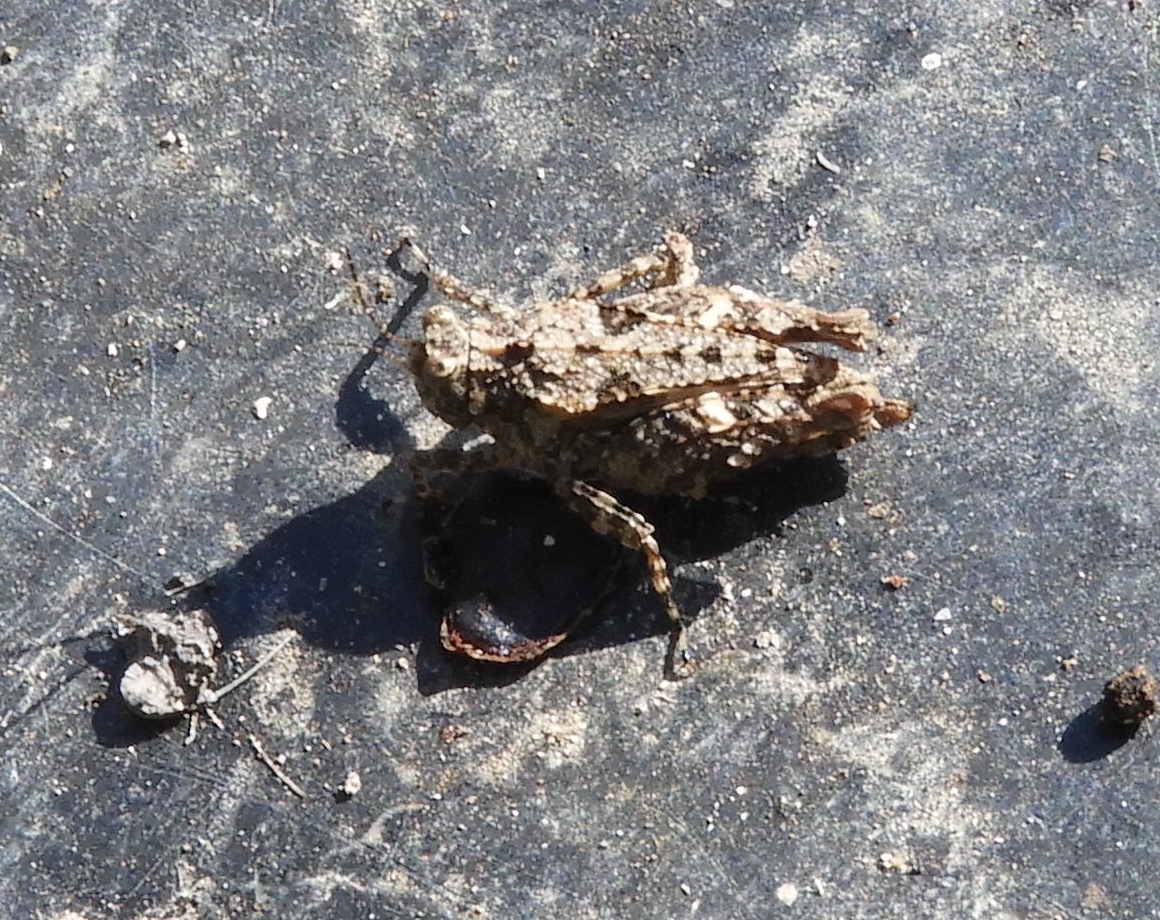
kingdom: Animalia
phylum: Arthropoda
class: Insecta
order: Orthoptera
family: Tetrigidae
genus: Paratettix
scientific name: Paratettix mexicanus
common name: Mexican pygmy grasshopper
